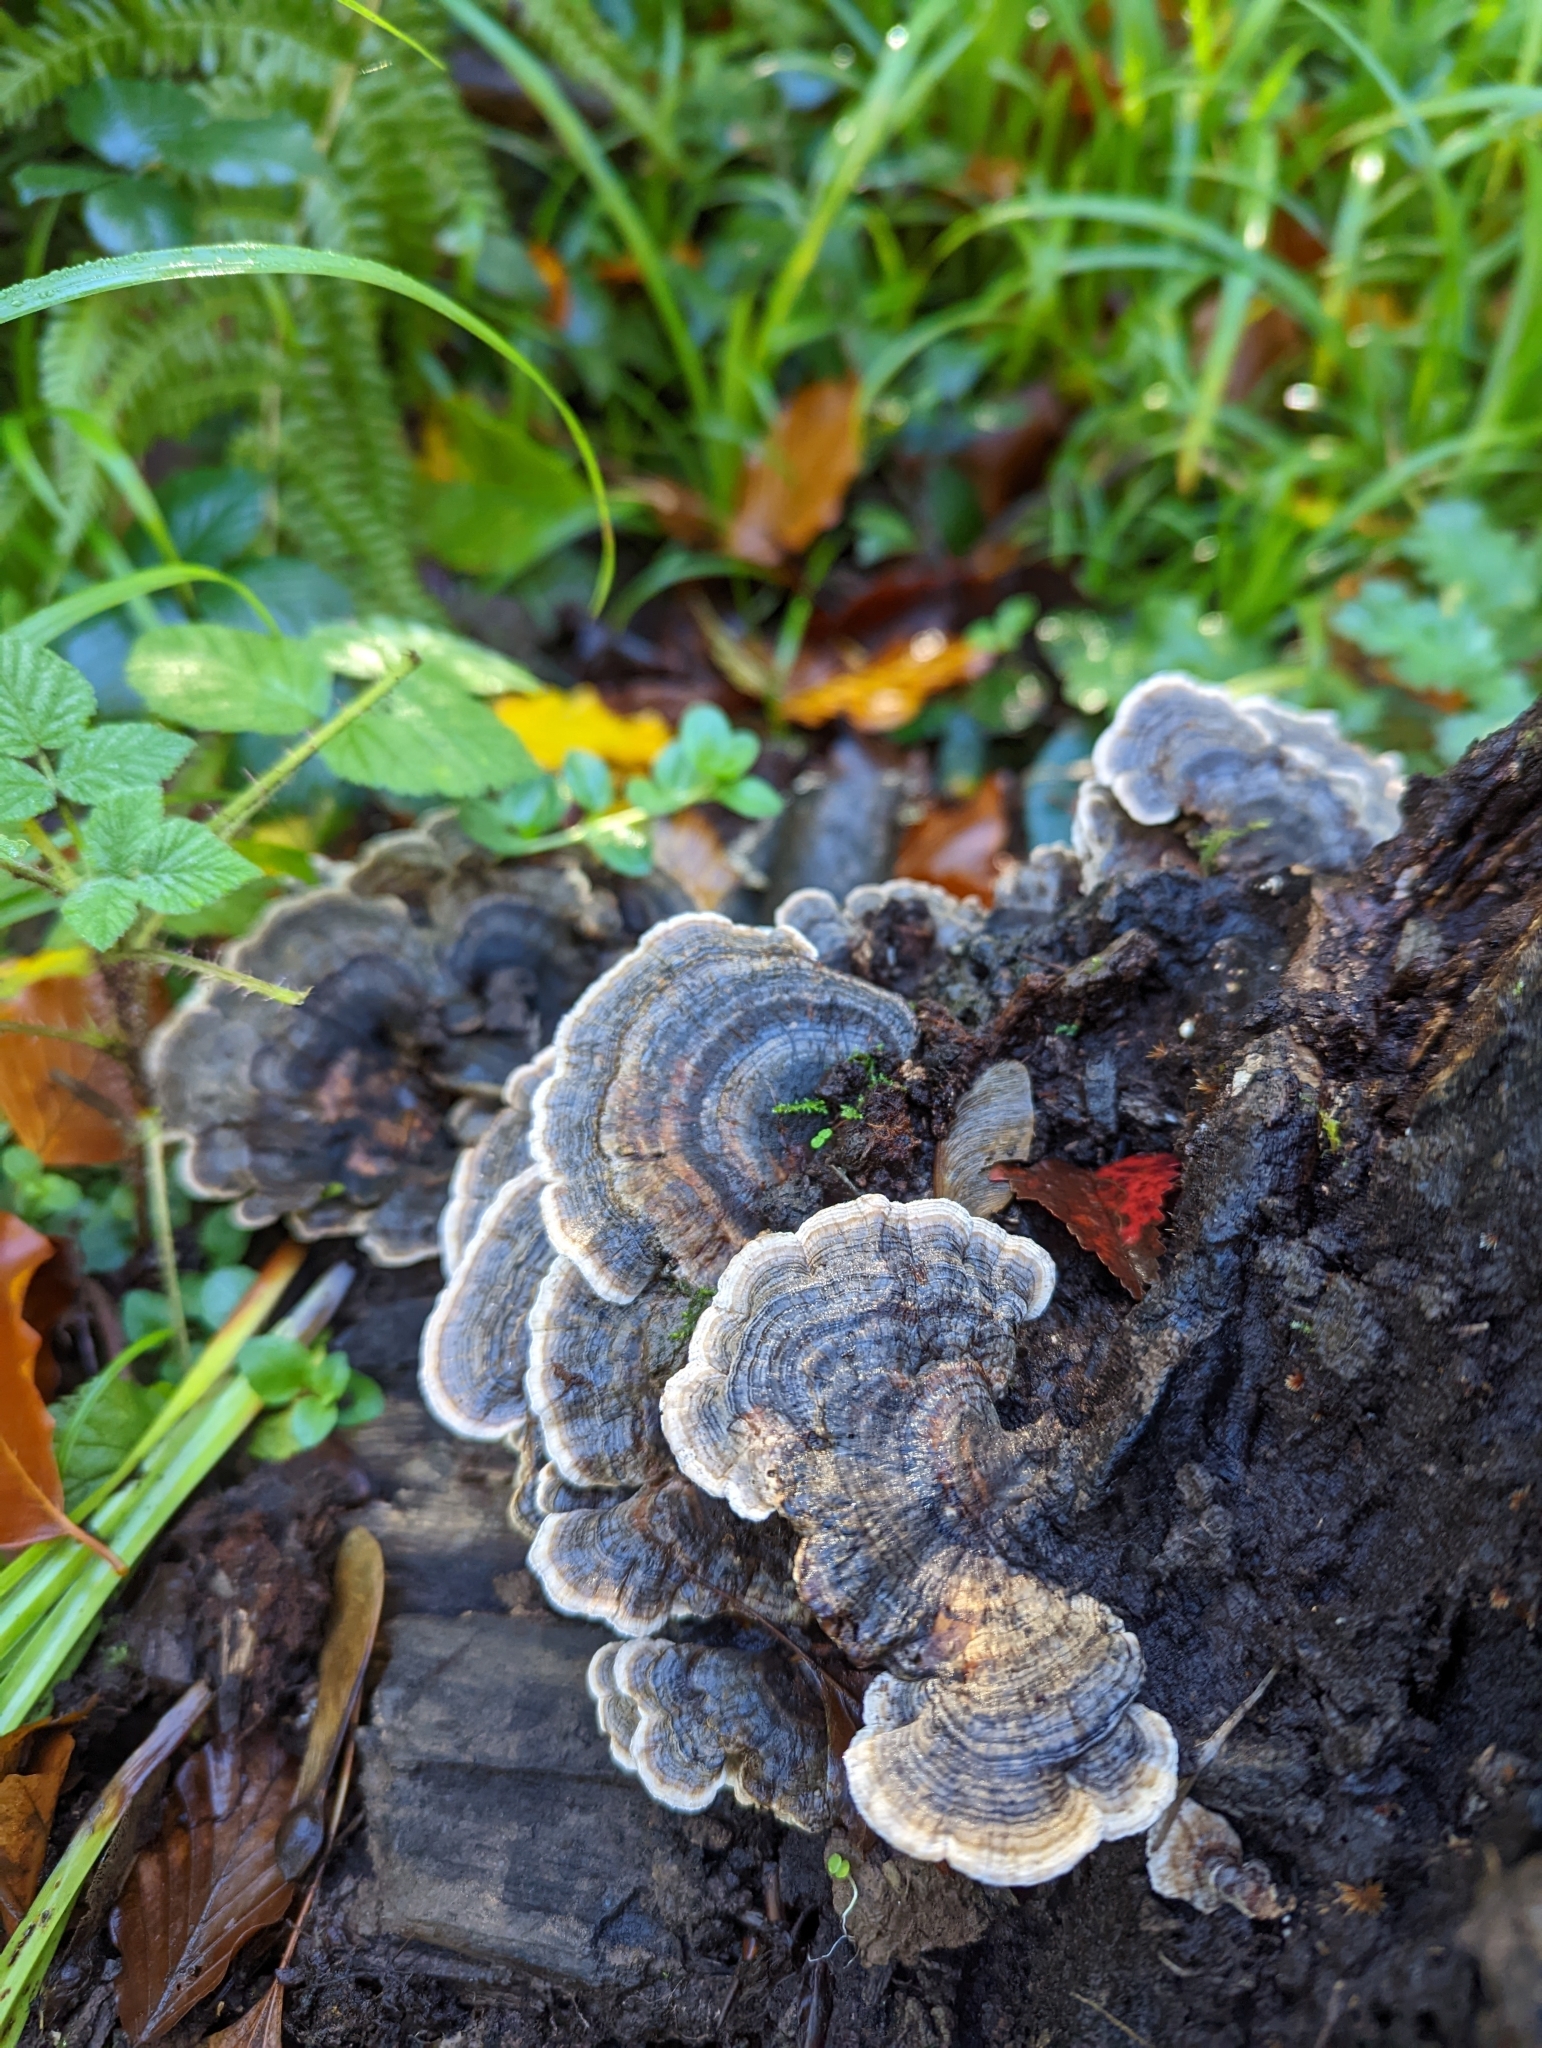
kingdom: Fungi
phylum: Basidiomycota
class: Agaricomycetes
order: Polyporales
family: Polyporaceae
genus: Trametes
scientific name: Trametes versicolor
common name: Turkeytail
